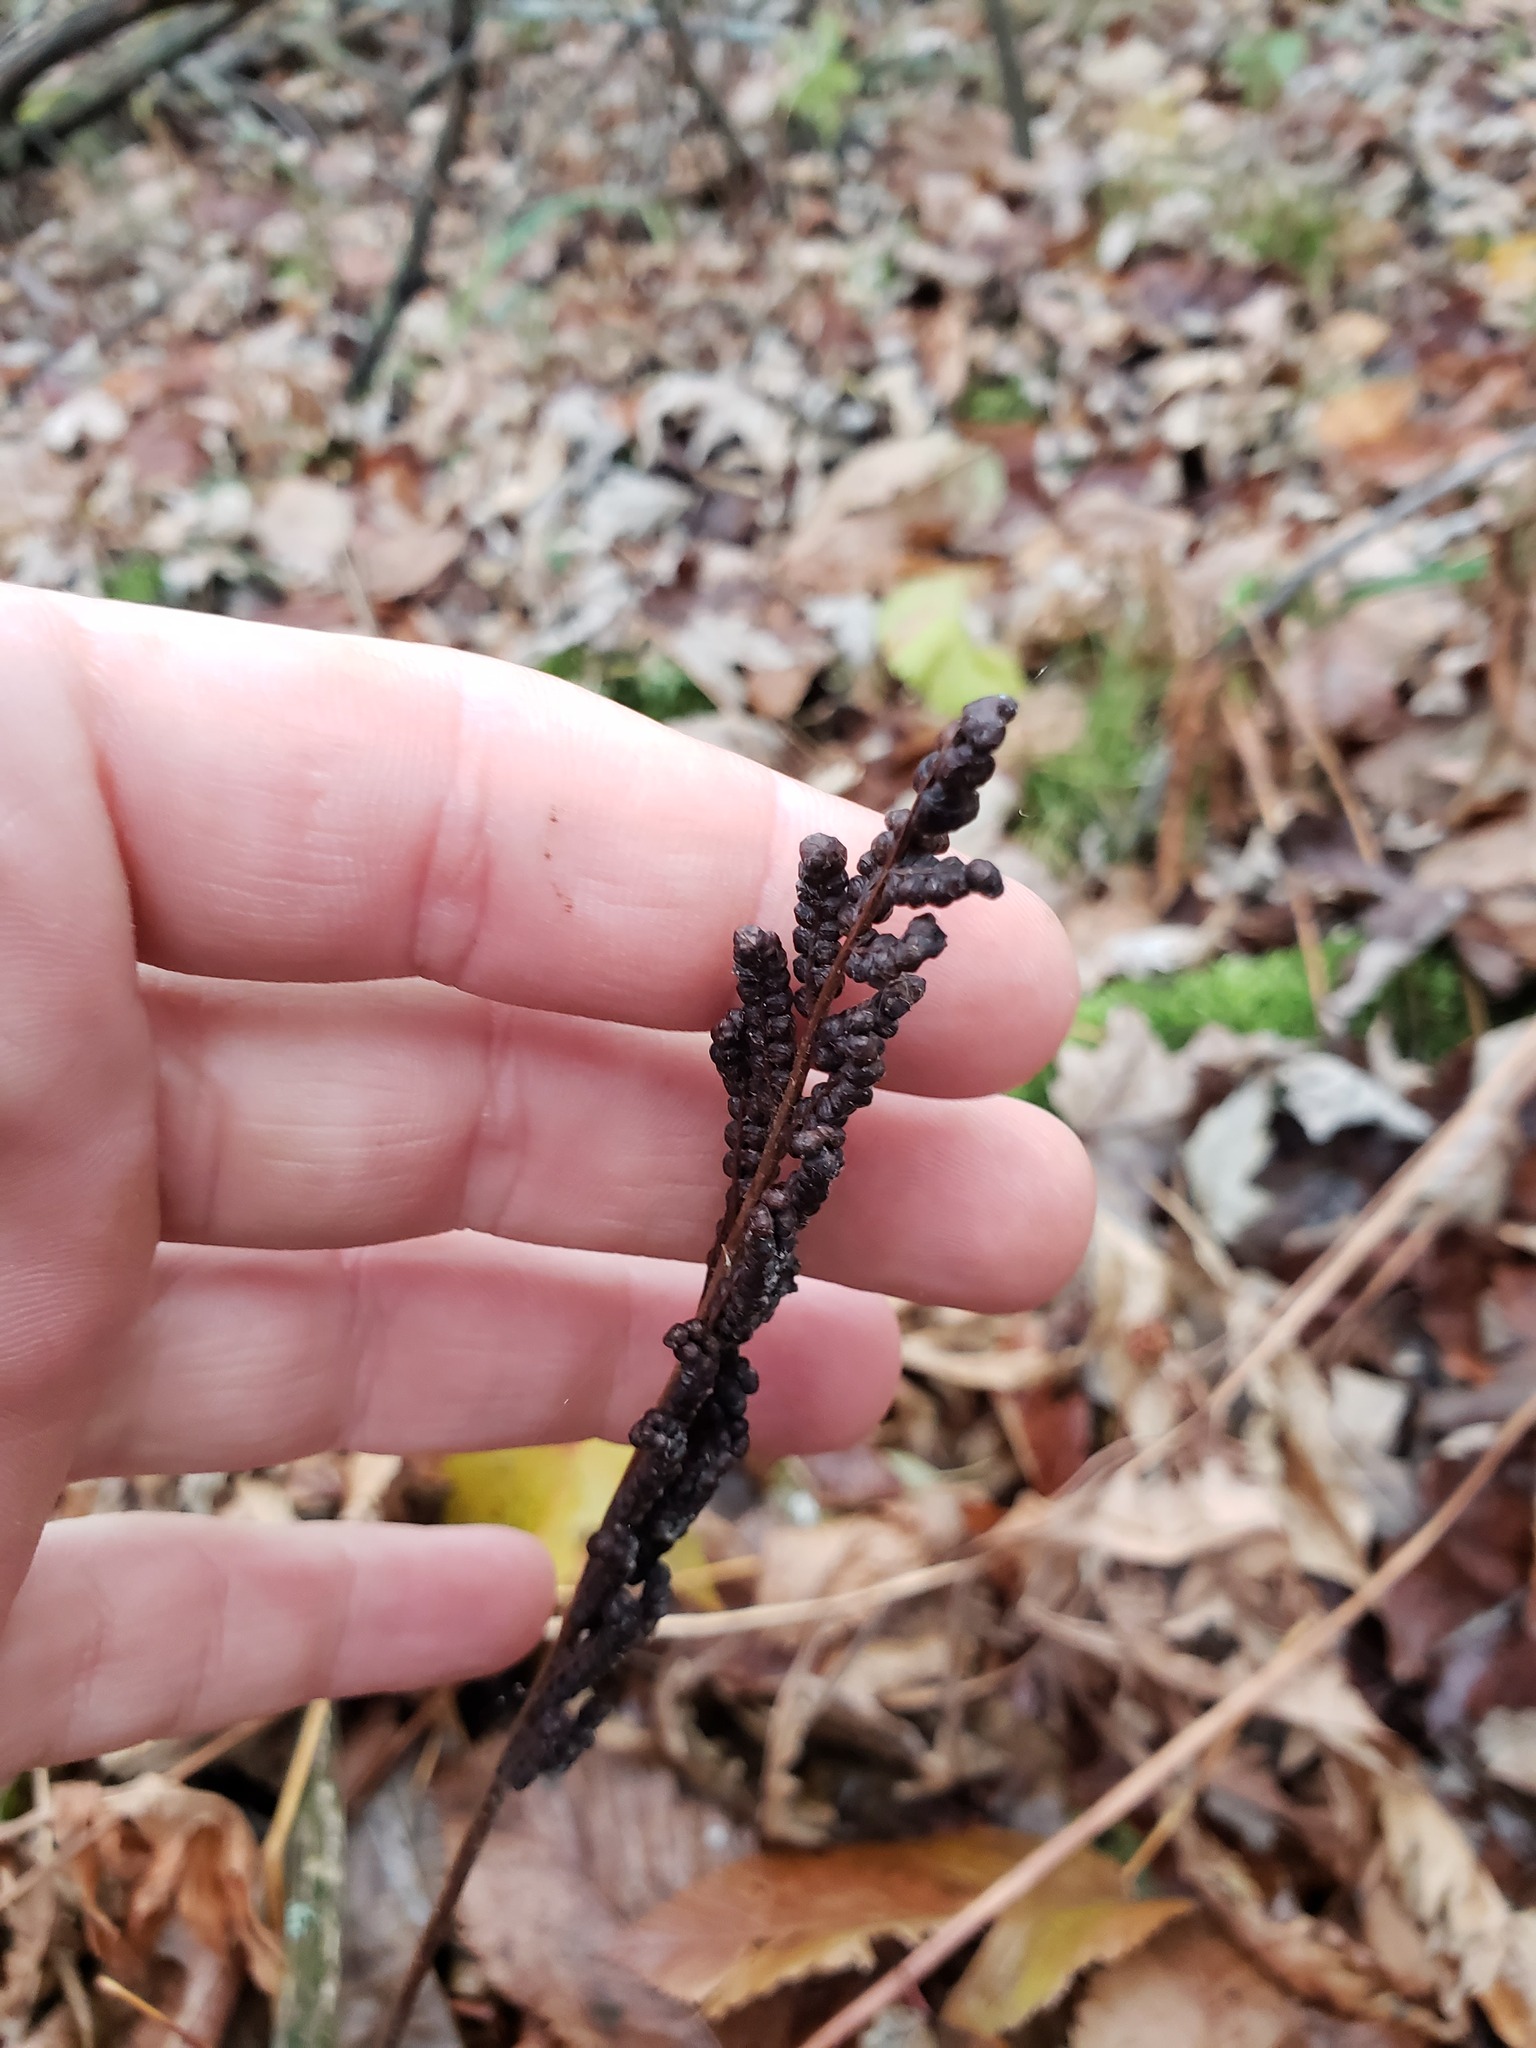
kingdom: Plantae
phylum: Tracheophyta
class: Polypodiopsida
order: Polypodiales
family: Onocleaceae
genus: Onoclea
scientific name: Onoclea sensibilis
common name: Sensitive fern
